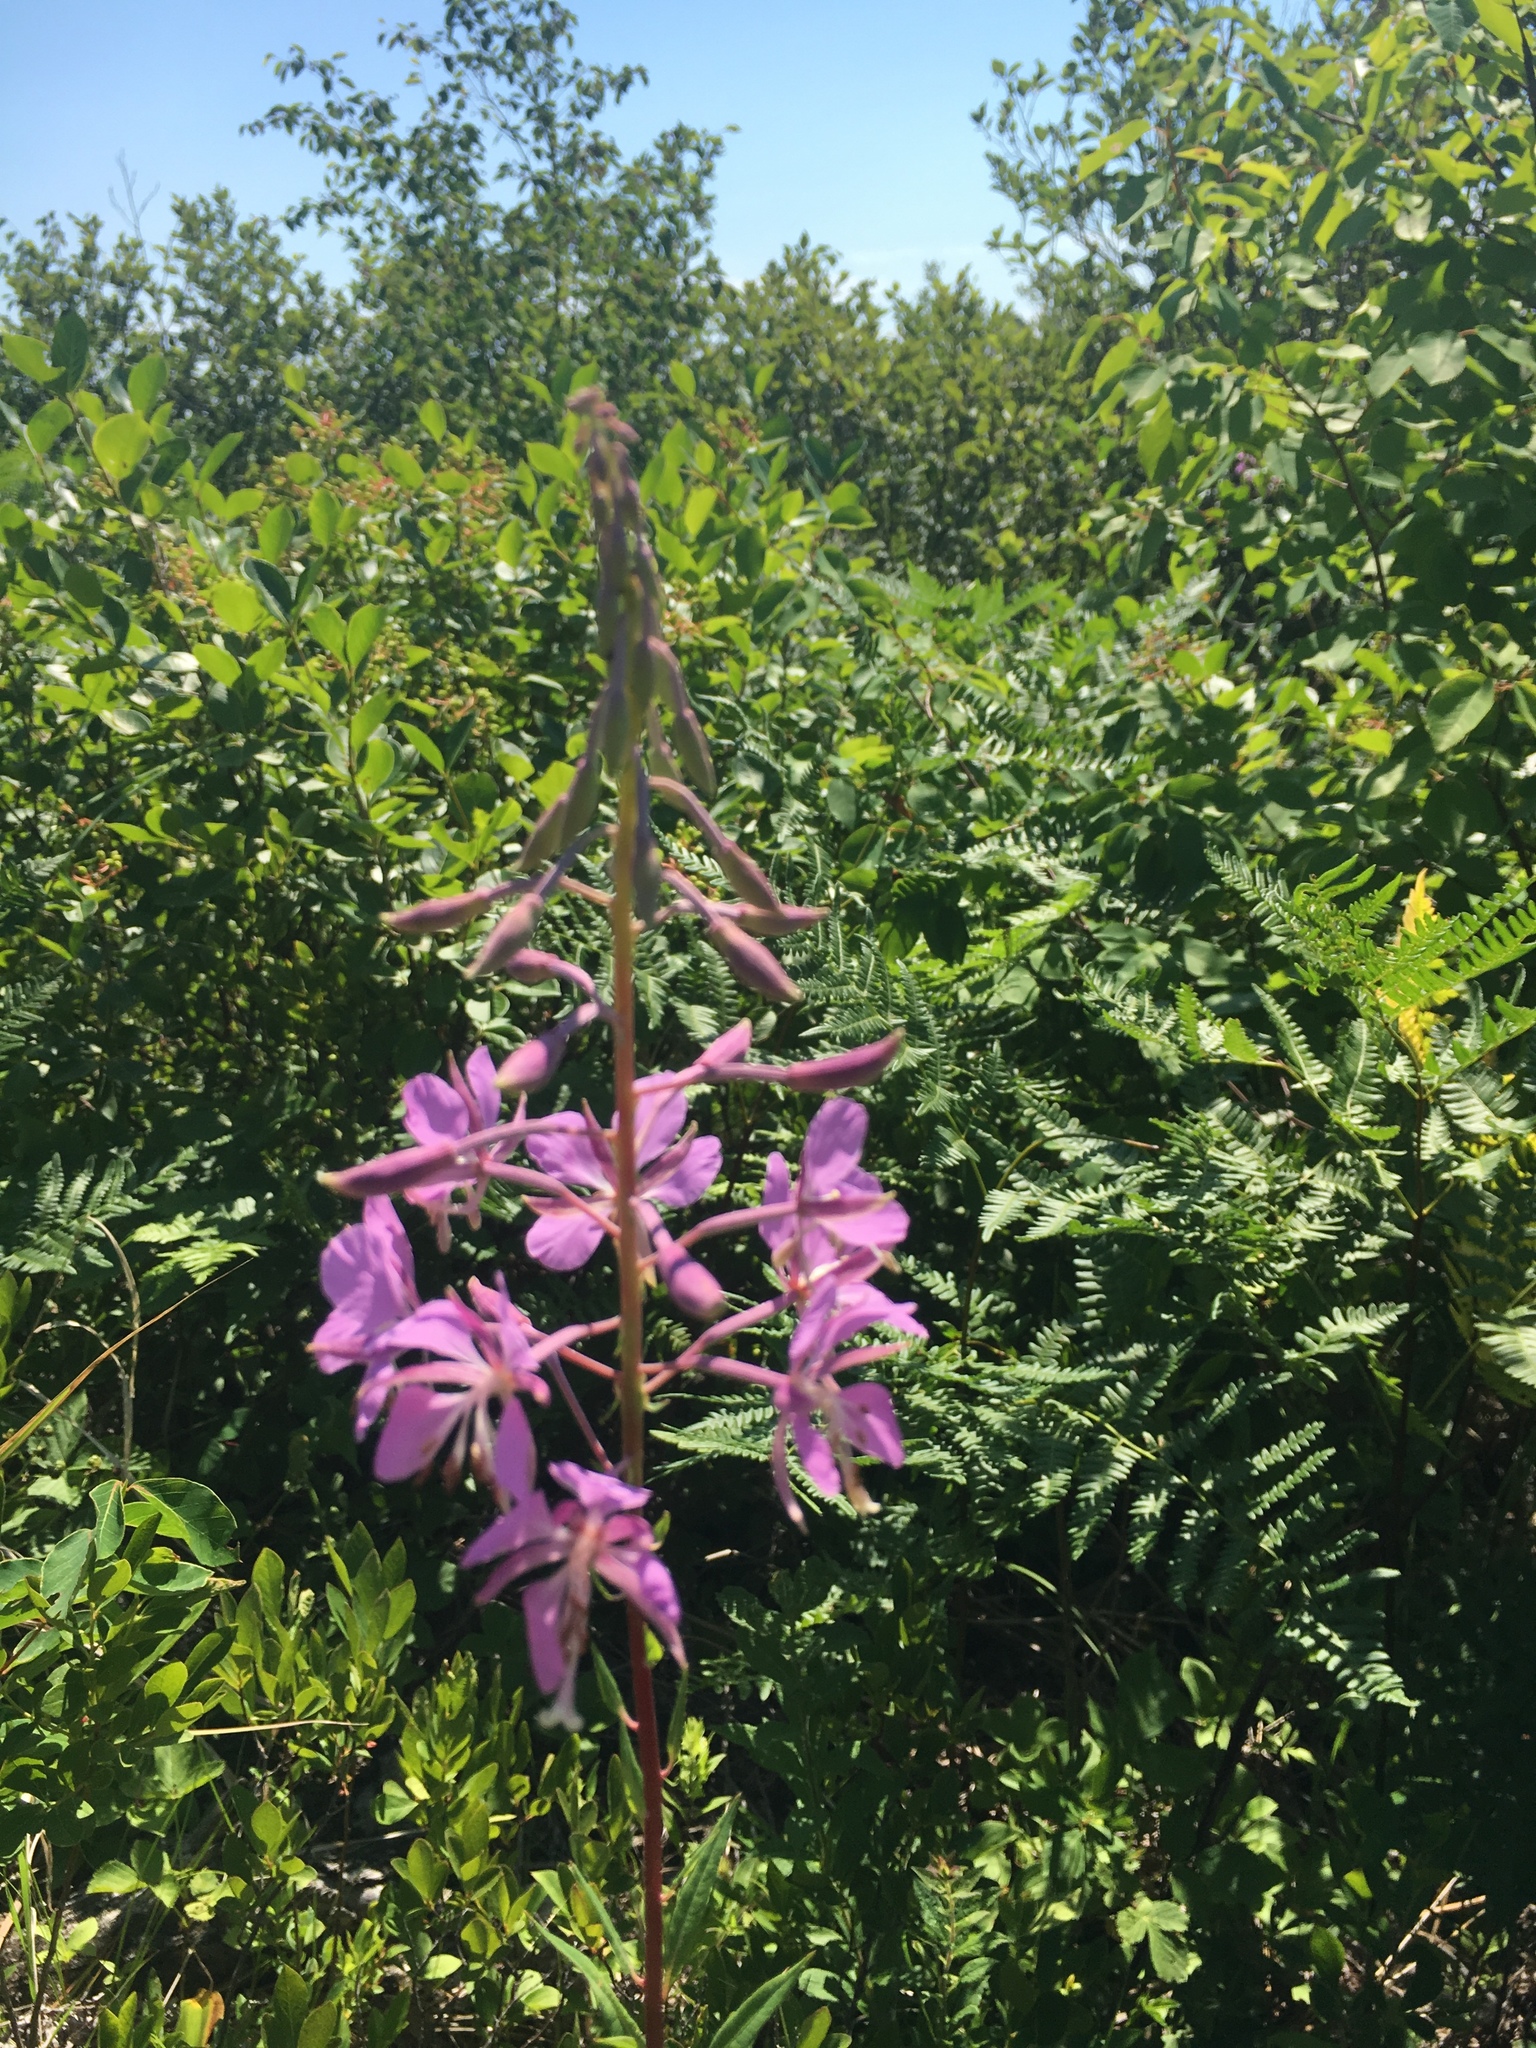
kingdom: Plantae
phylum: Tracheophyta
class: Magnoliopsida
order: Myrtales
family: Onagraceae
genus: Chamaenerion
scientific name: Chamaenerion angustifolium
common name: Fireweed
